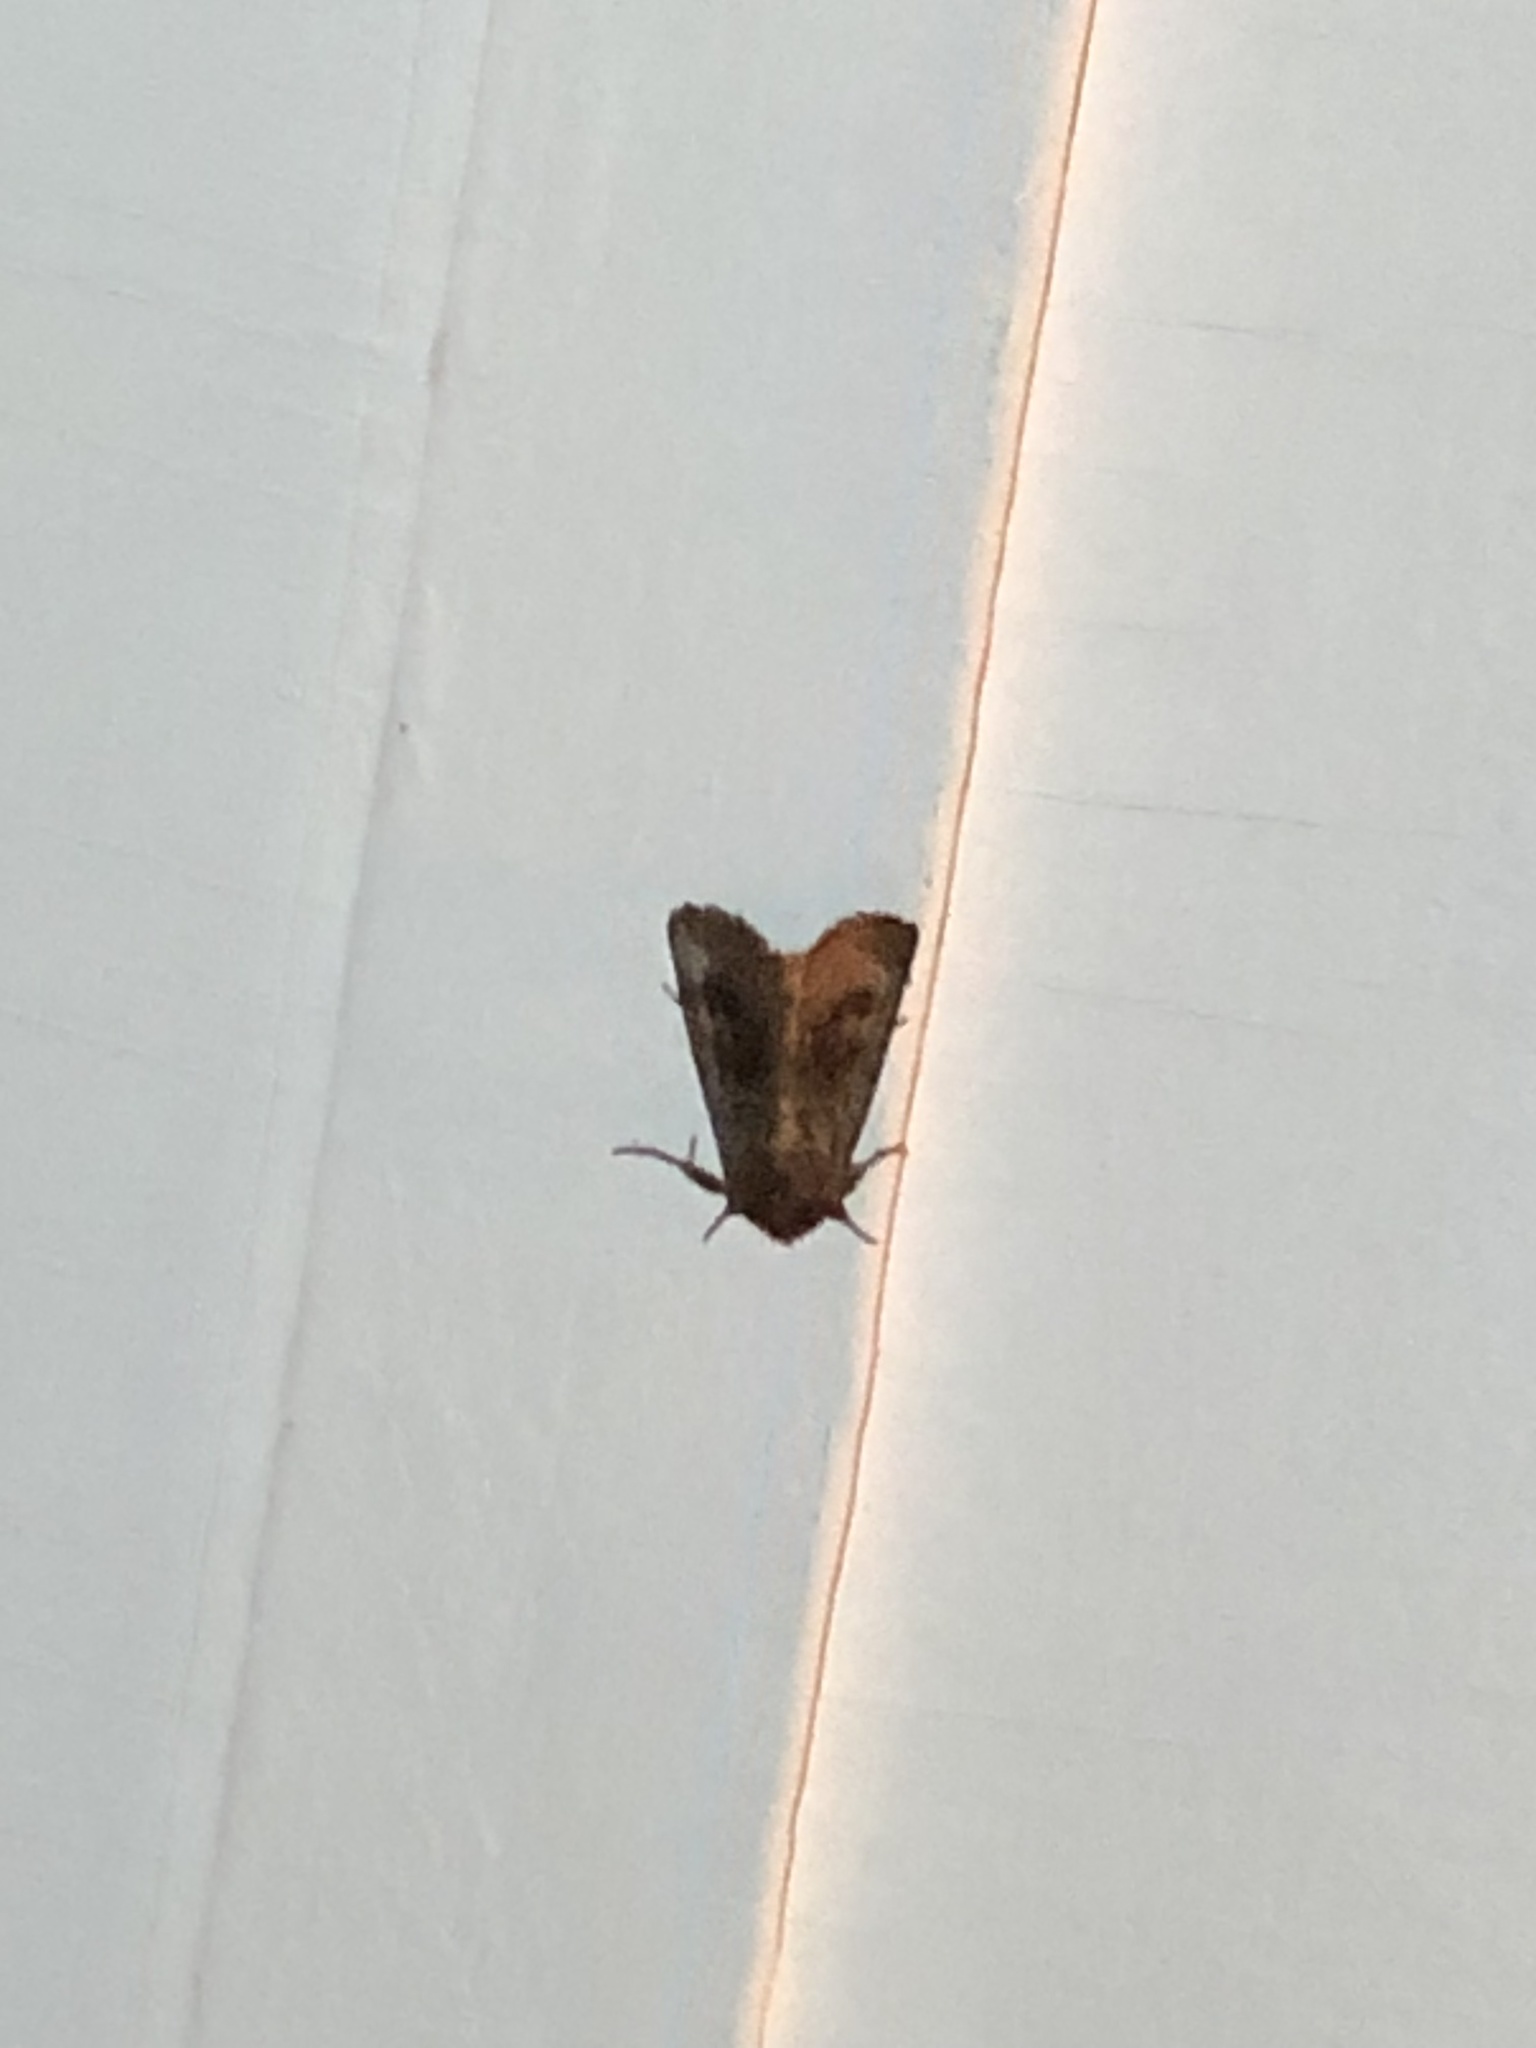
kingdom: Animalia
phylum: Arthropoda
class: Insecta
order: Lepidoptera
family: Noctuidae
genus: Nephelodes
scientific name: Nephelodes minians
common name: Bronzed cutworm
